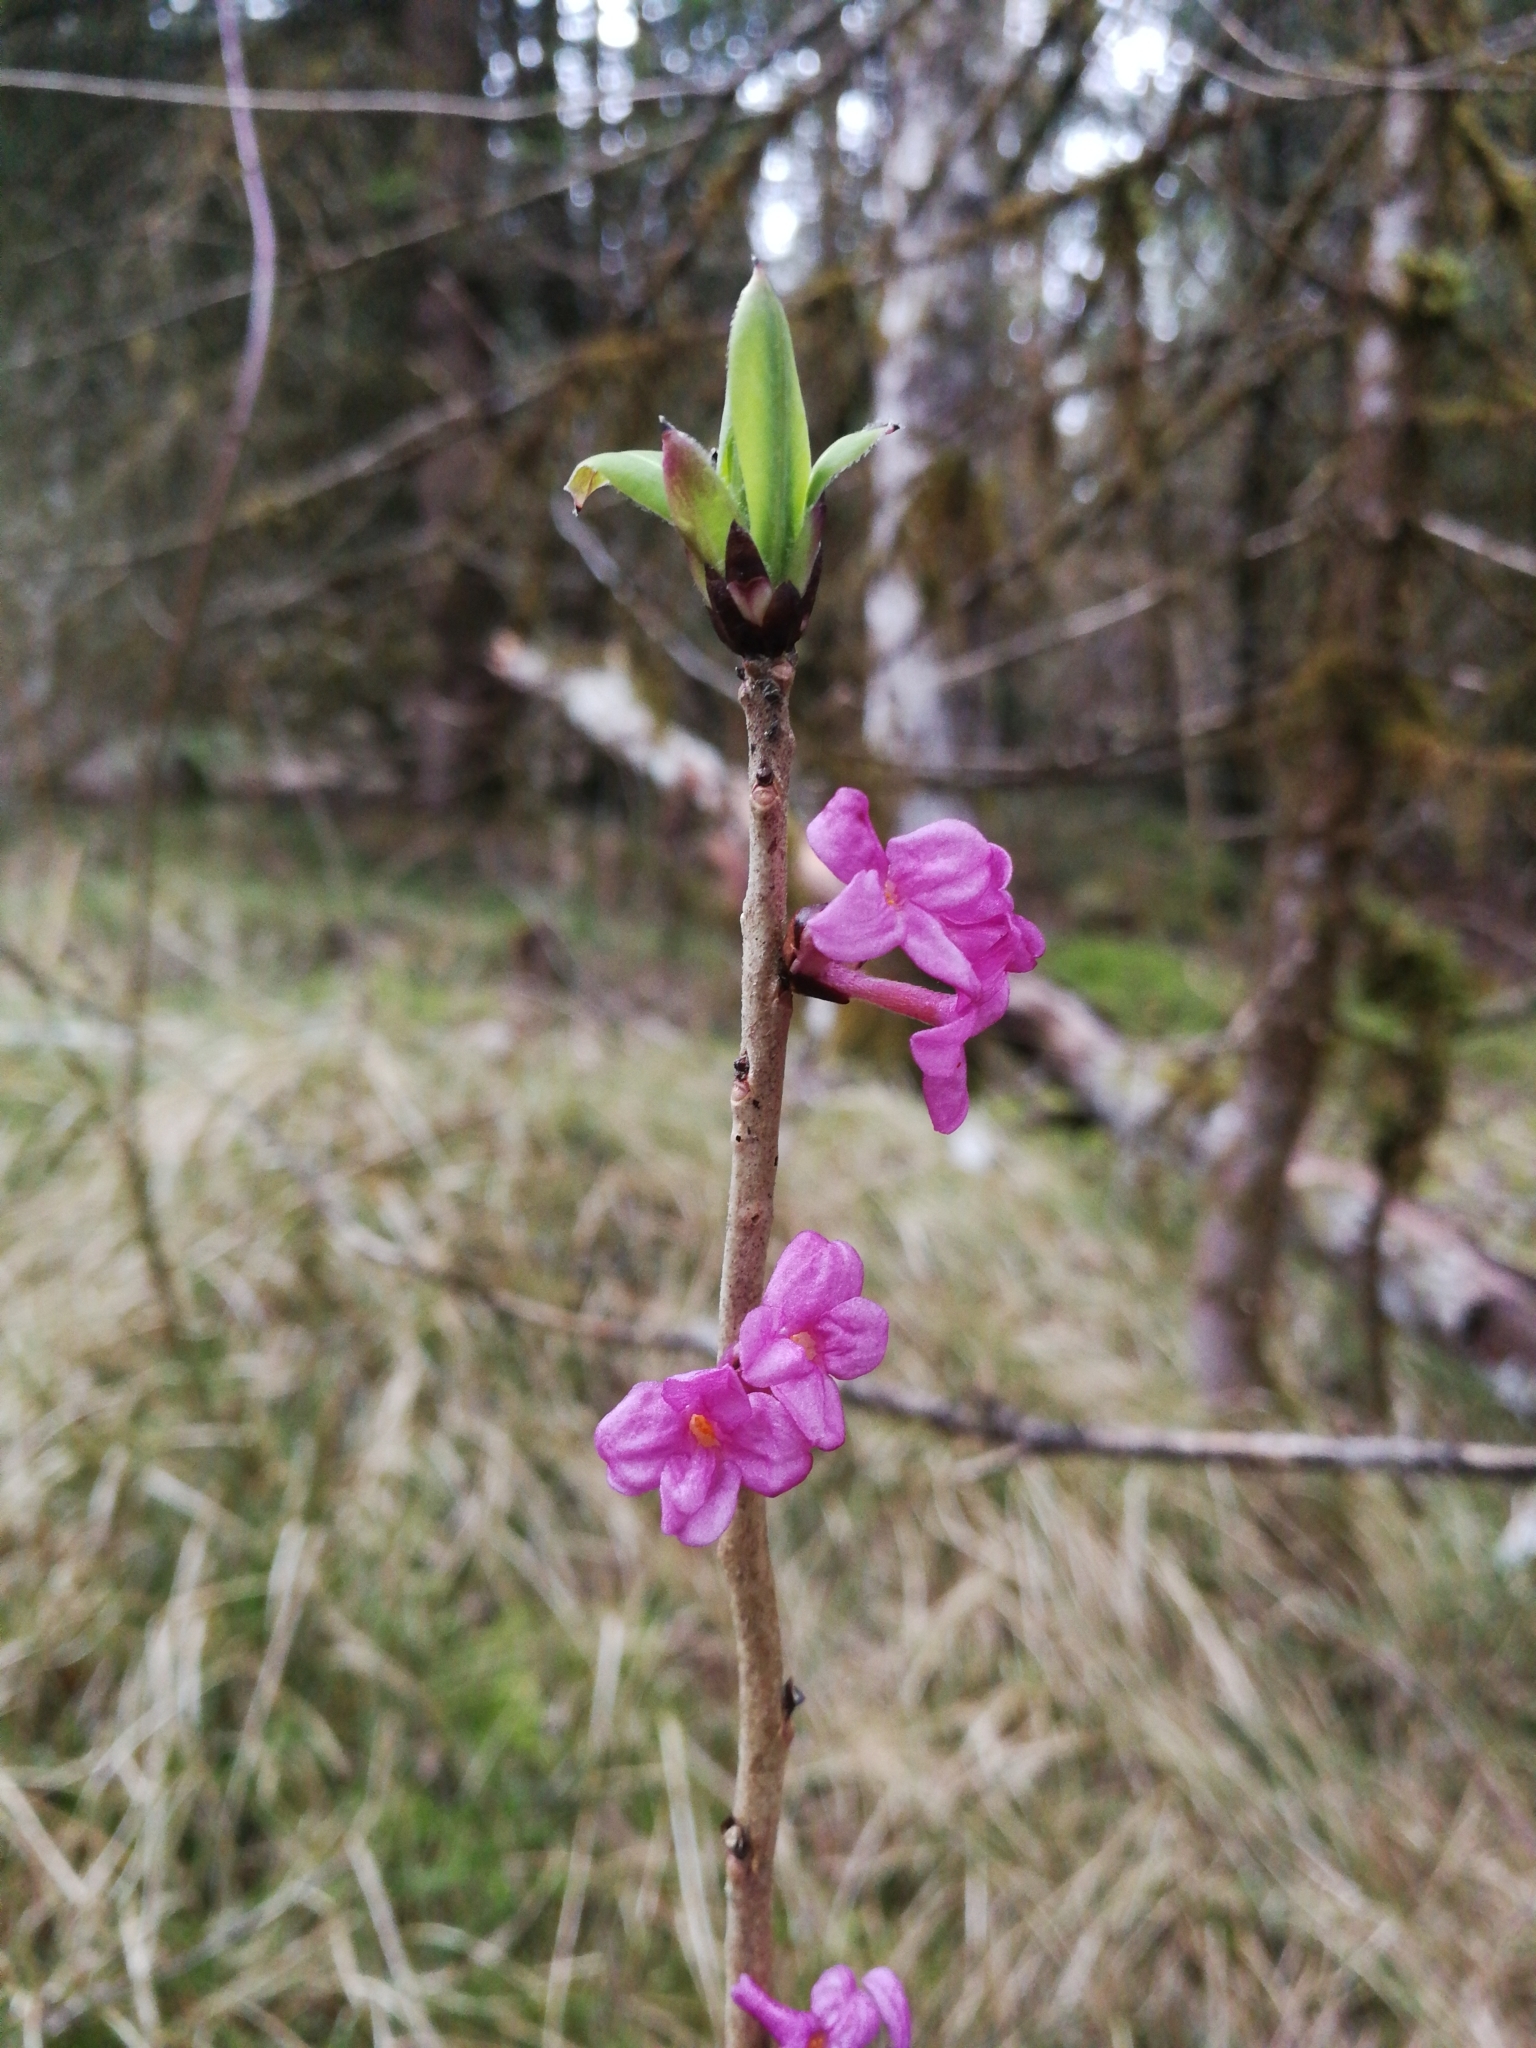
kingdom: Plantae
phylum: Tracheophyta
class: Magnoliopsida
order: Malvales
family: Thymelaeaceae
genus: Daphne
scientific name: Daphne mezereum
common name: Mezereon
